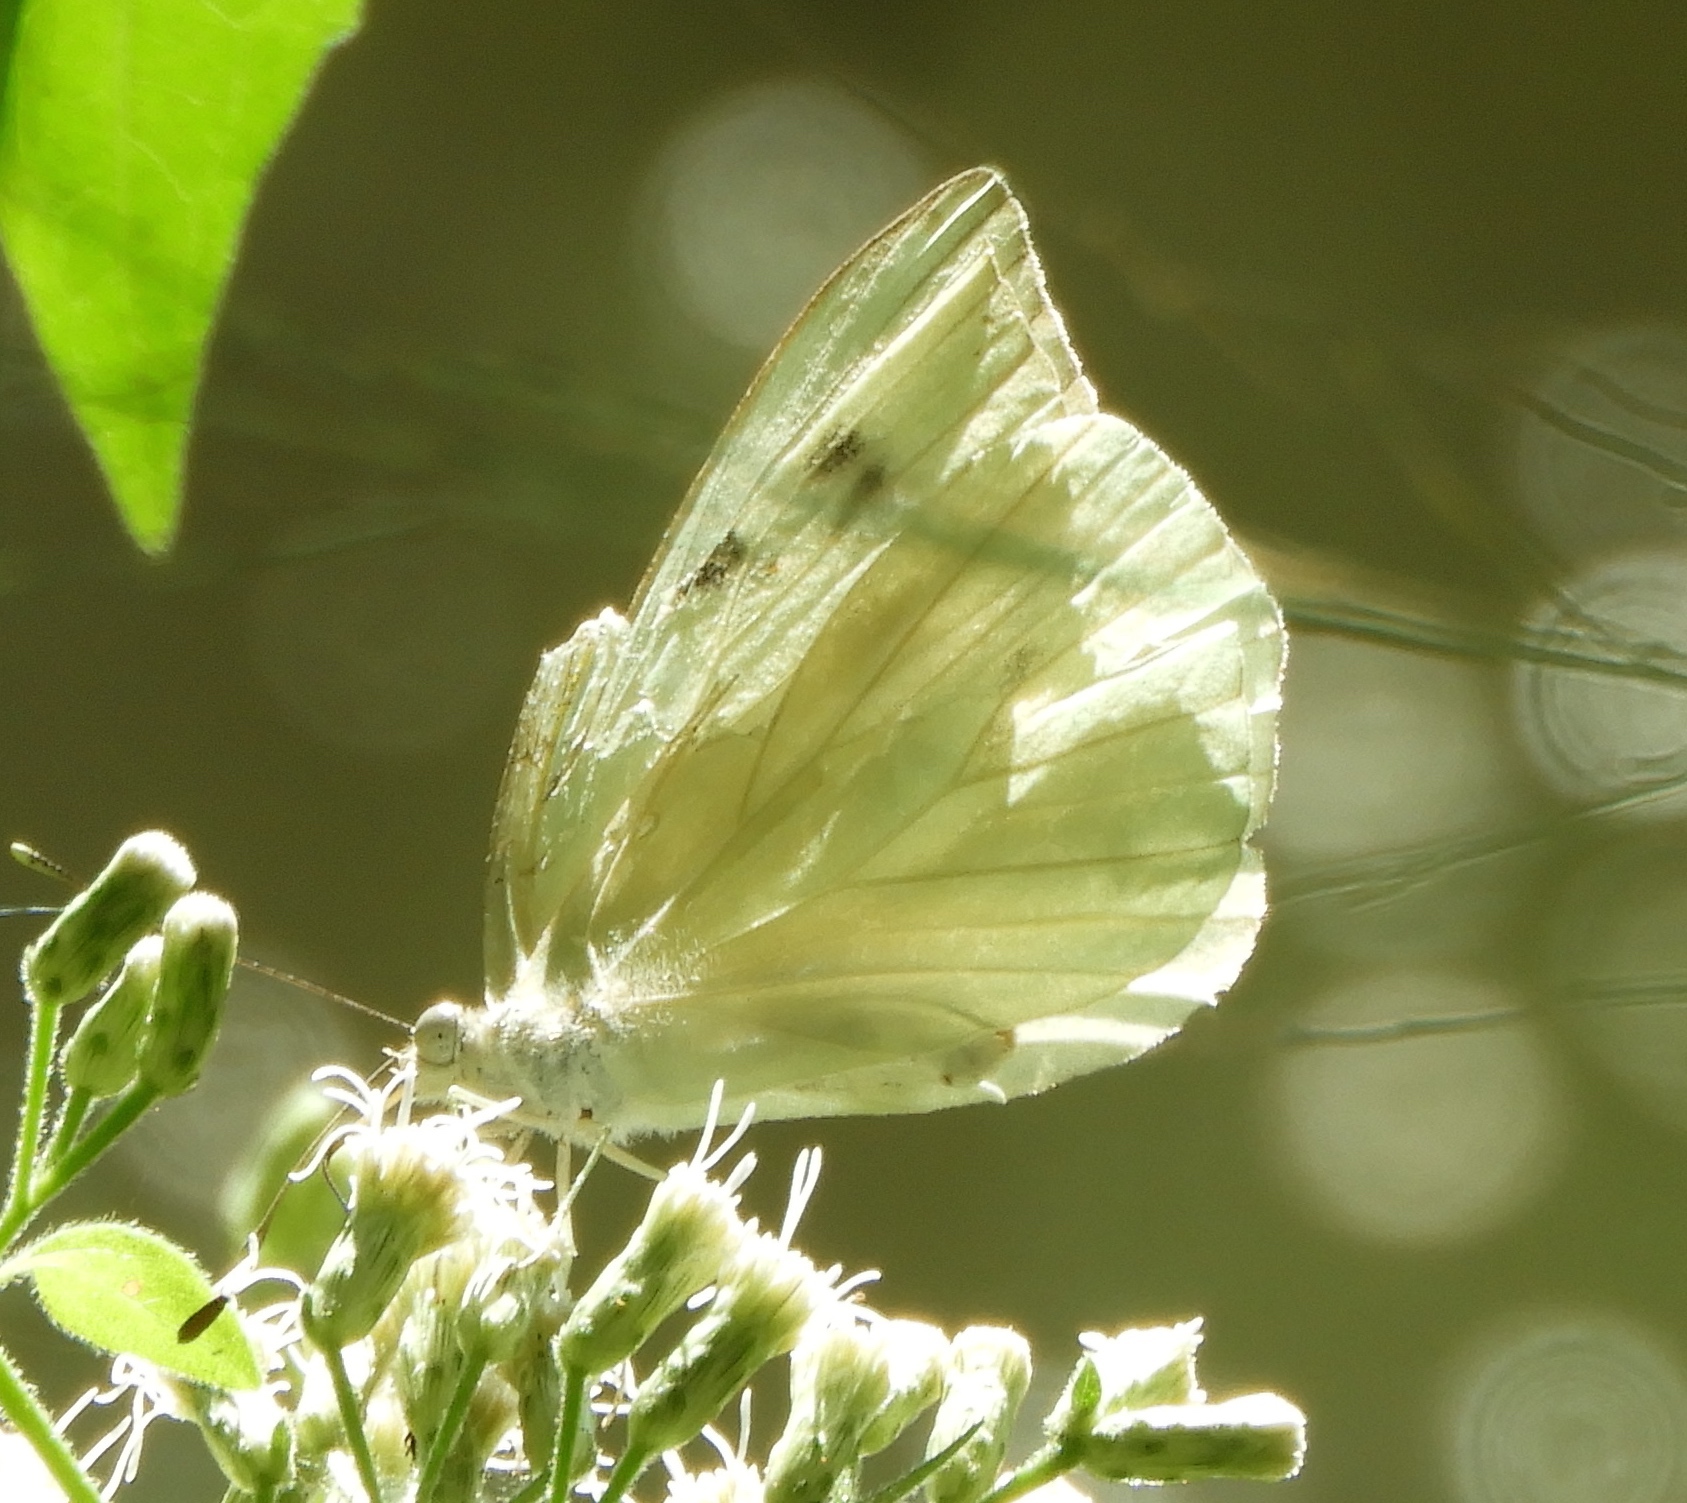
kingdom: Animalia
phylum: Arthropoda
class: Insecta
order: Lepidoptera
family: Pieridae
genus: Ganyra
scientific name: Ganyra josephina
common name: Giant white
